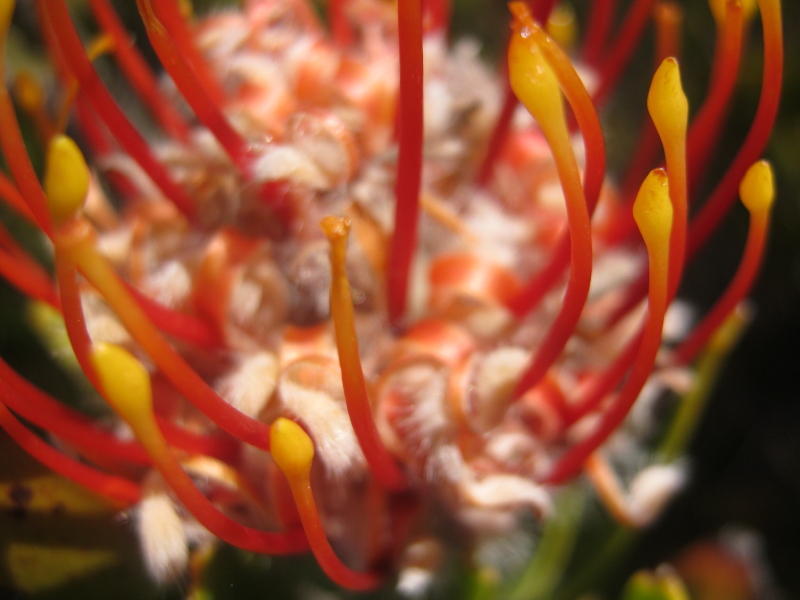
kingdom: Plantae
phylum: Tracheophyta
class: Magnoliopsida
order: Proteales
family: Proteaceae
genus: Leucospermum
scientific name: Leucospermum cuneiforme
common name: Common pincushion
